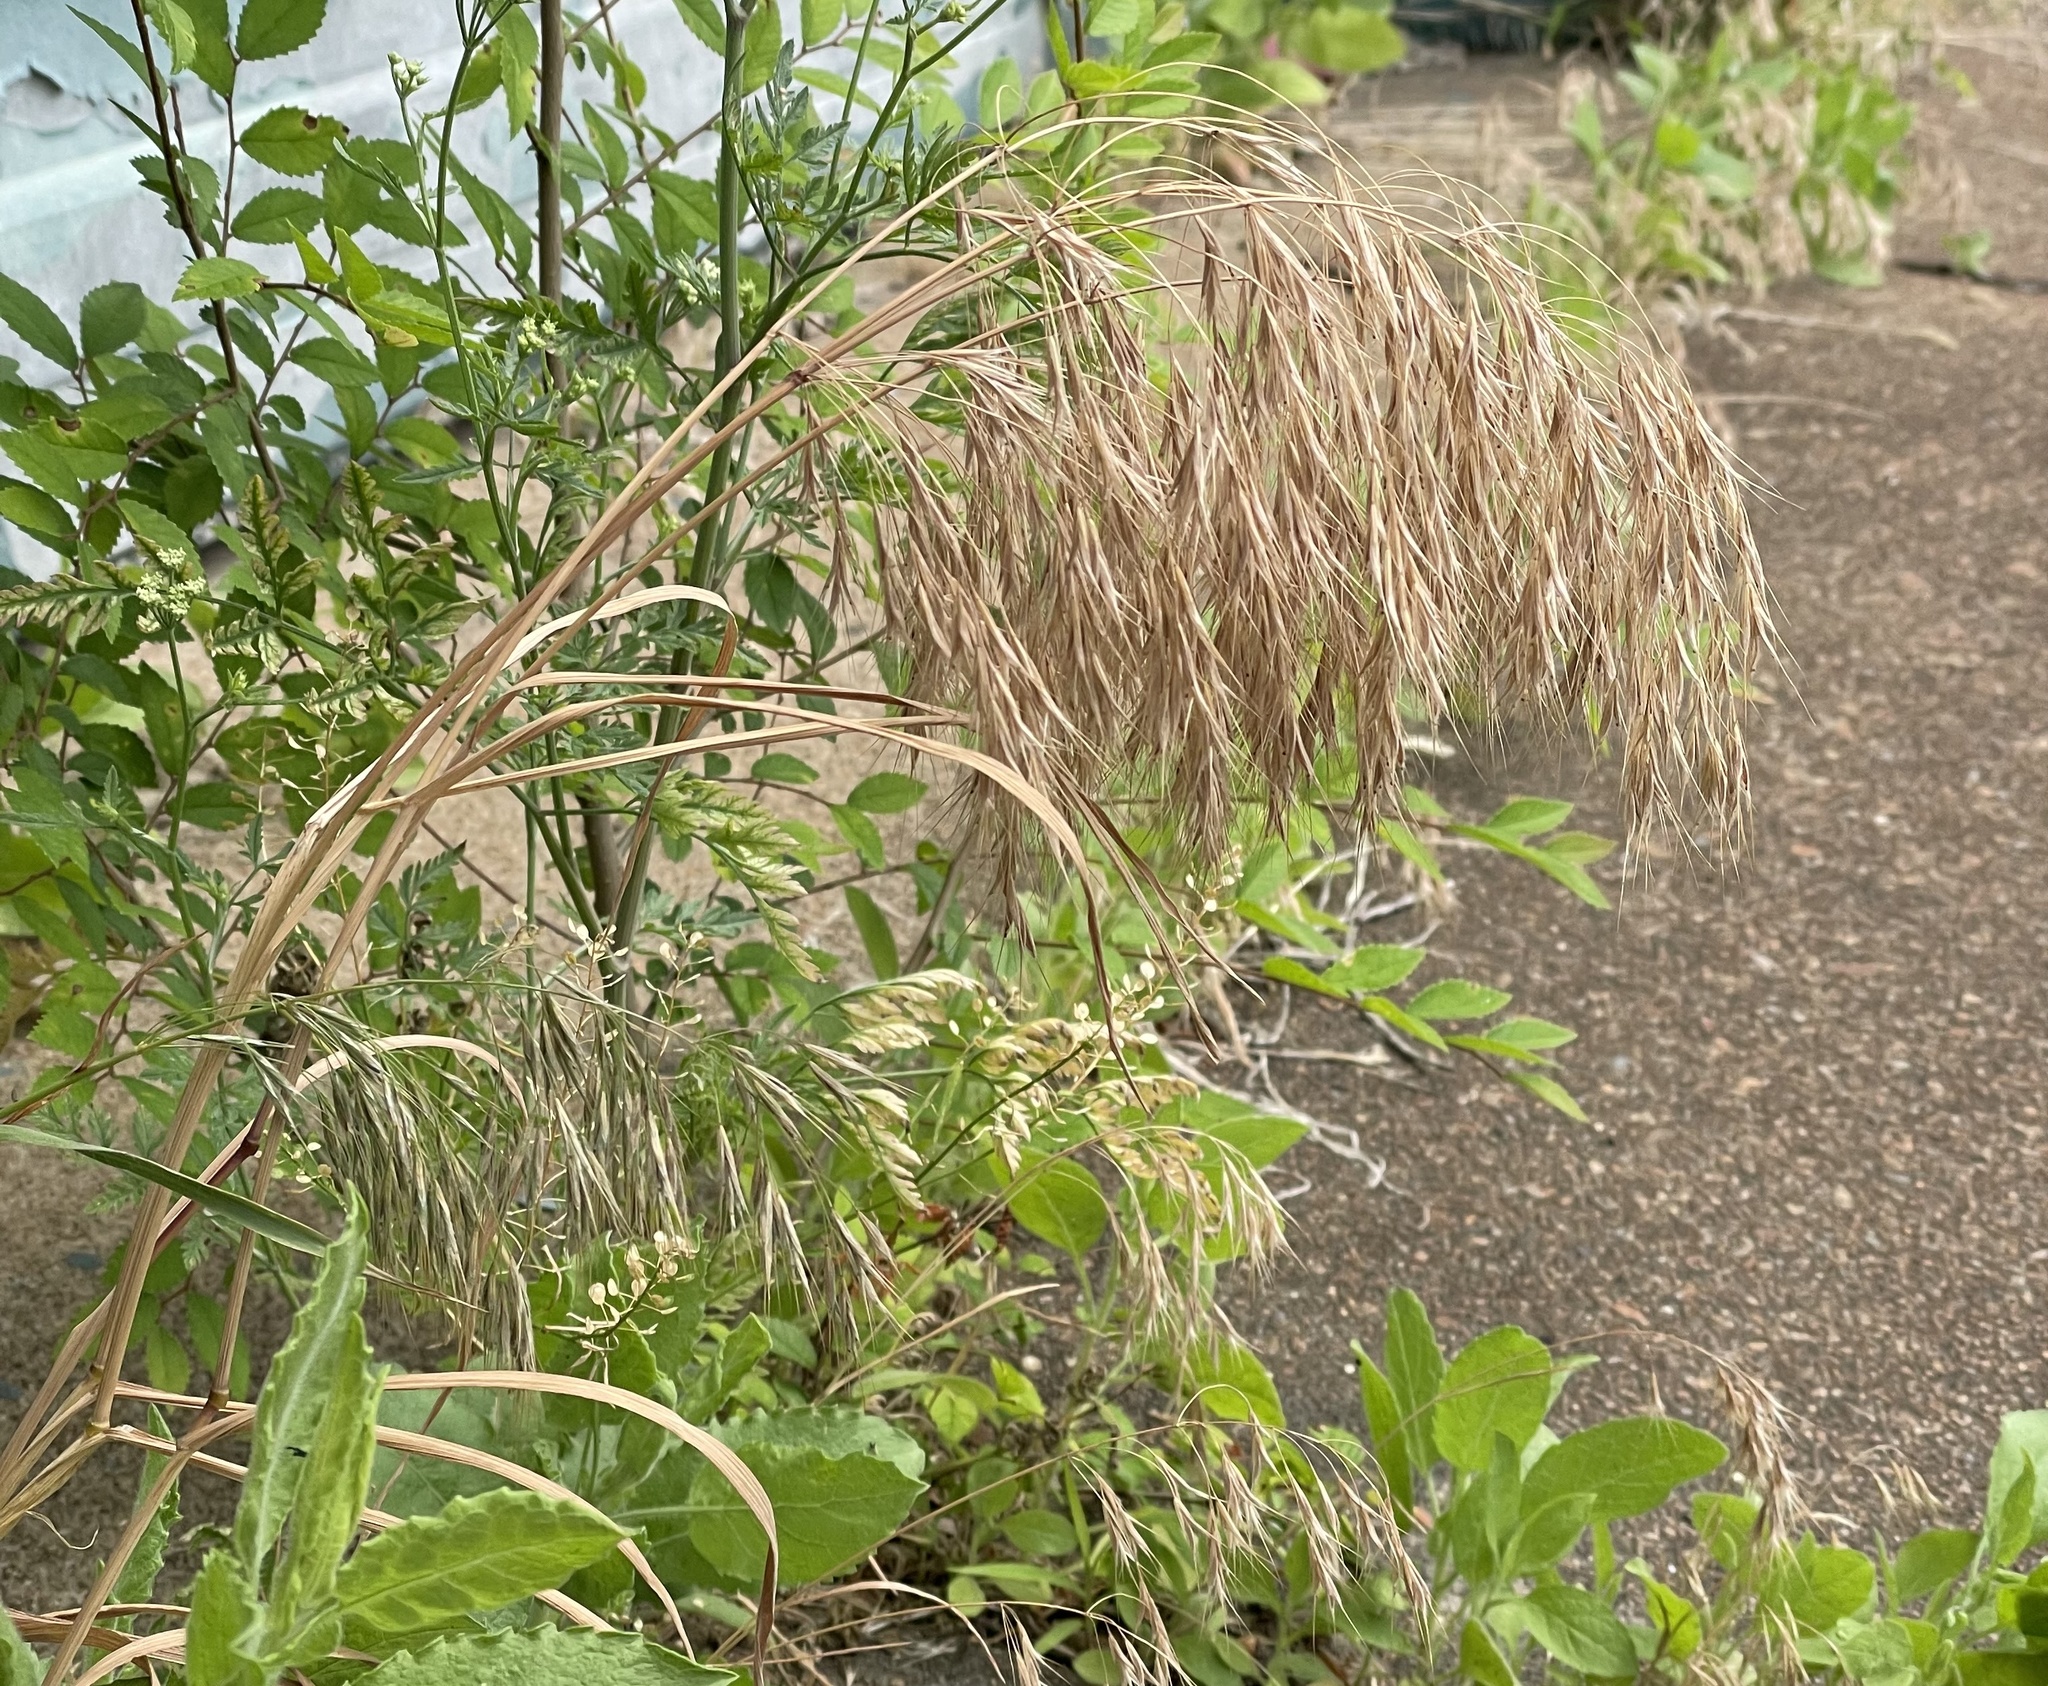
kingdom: Plantae
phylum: Tracheophyta
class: Liliopsida
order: Poales
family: Poaceae
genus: Bromus
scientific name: Bromus tectorum
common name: Cheatgrass
